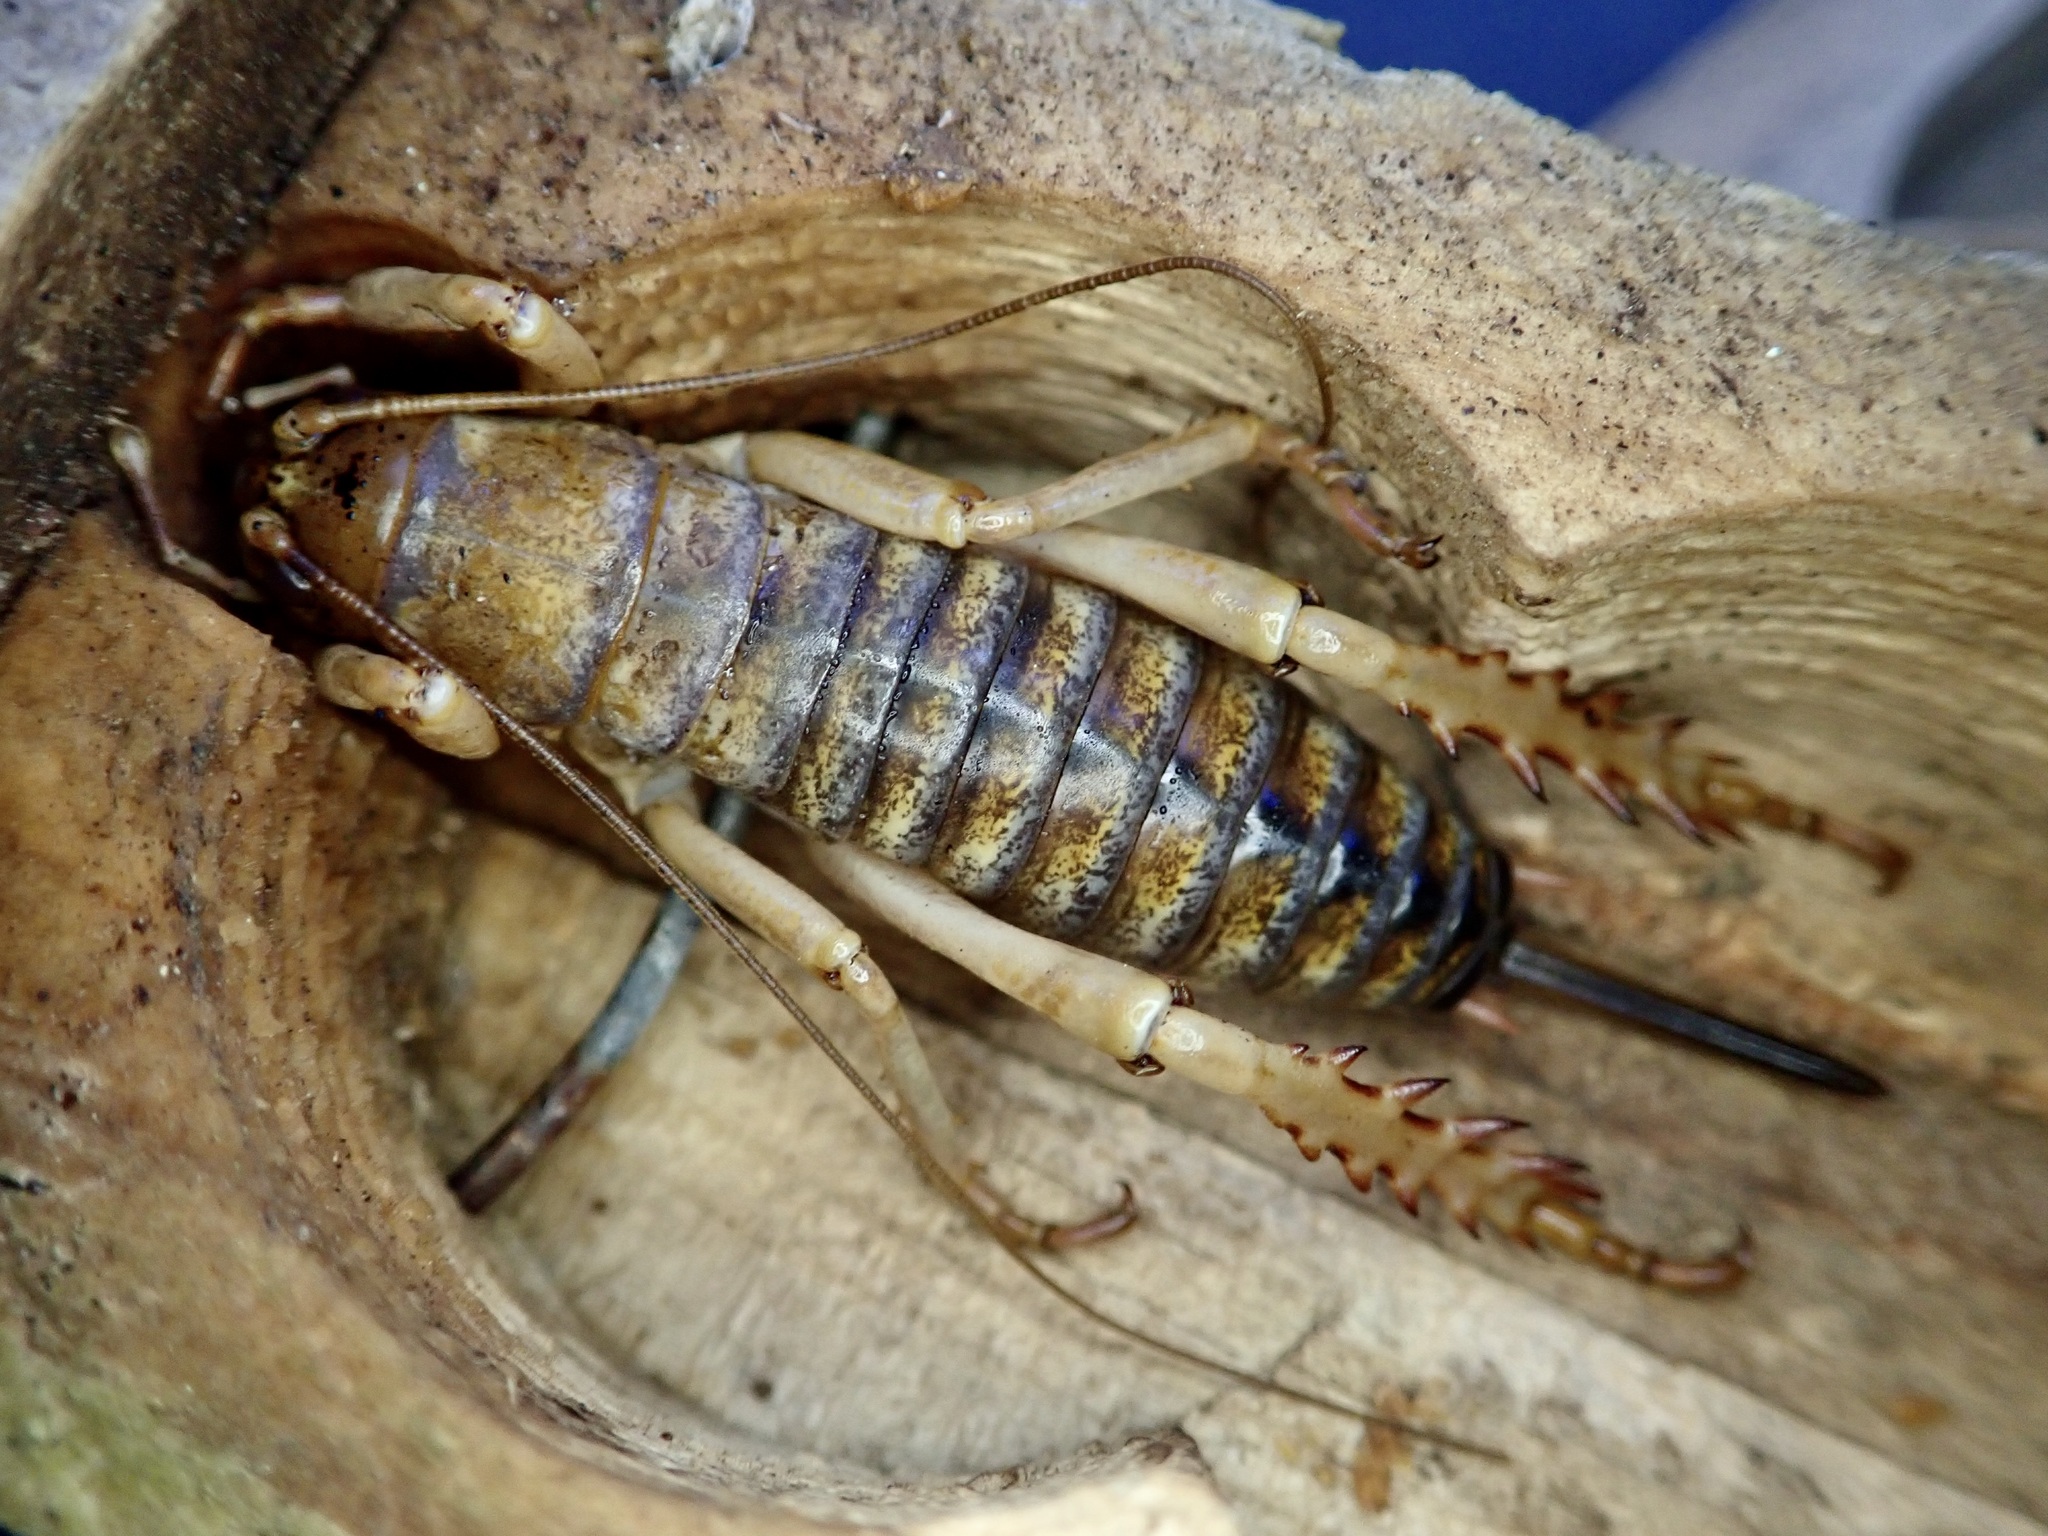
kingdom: Animalia
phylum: Arthropoda
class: Insecta
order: Orthoptera
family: Anostostomatidae
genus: Hemideina
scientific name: Hemideina ricta
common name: Banks peninsula tree weta
